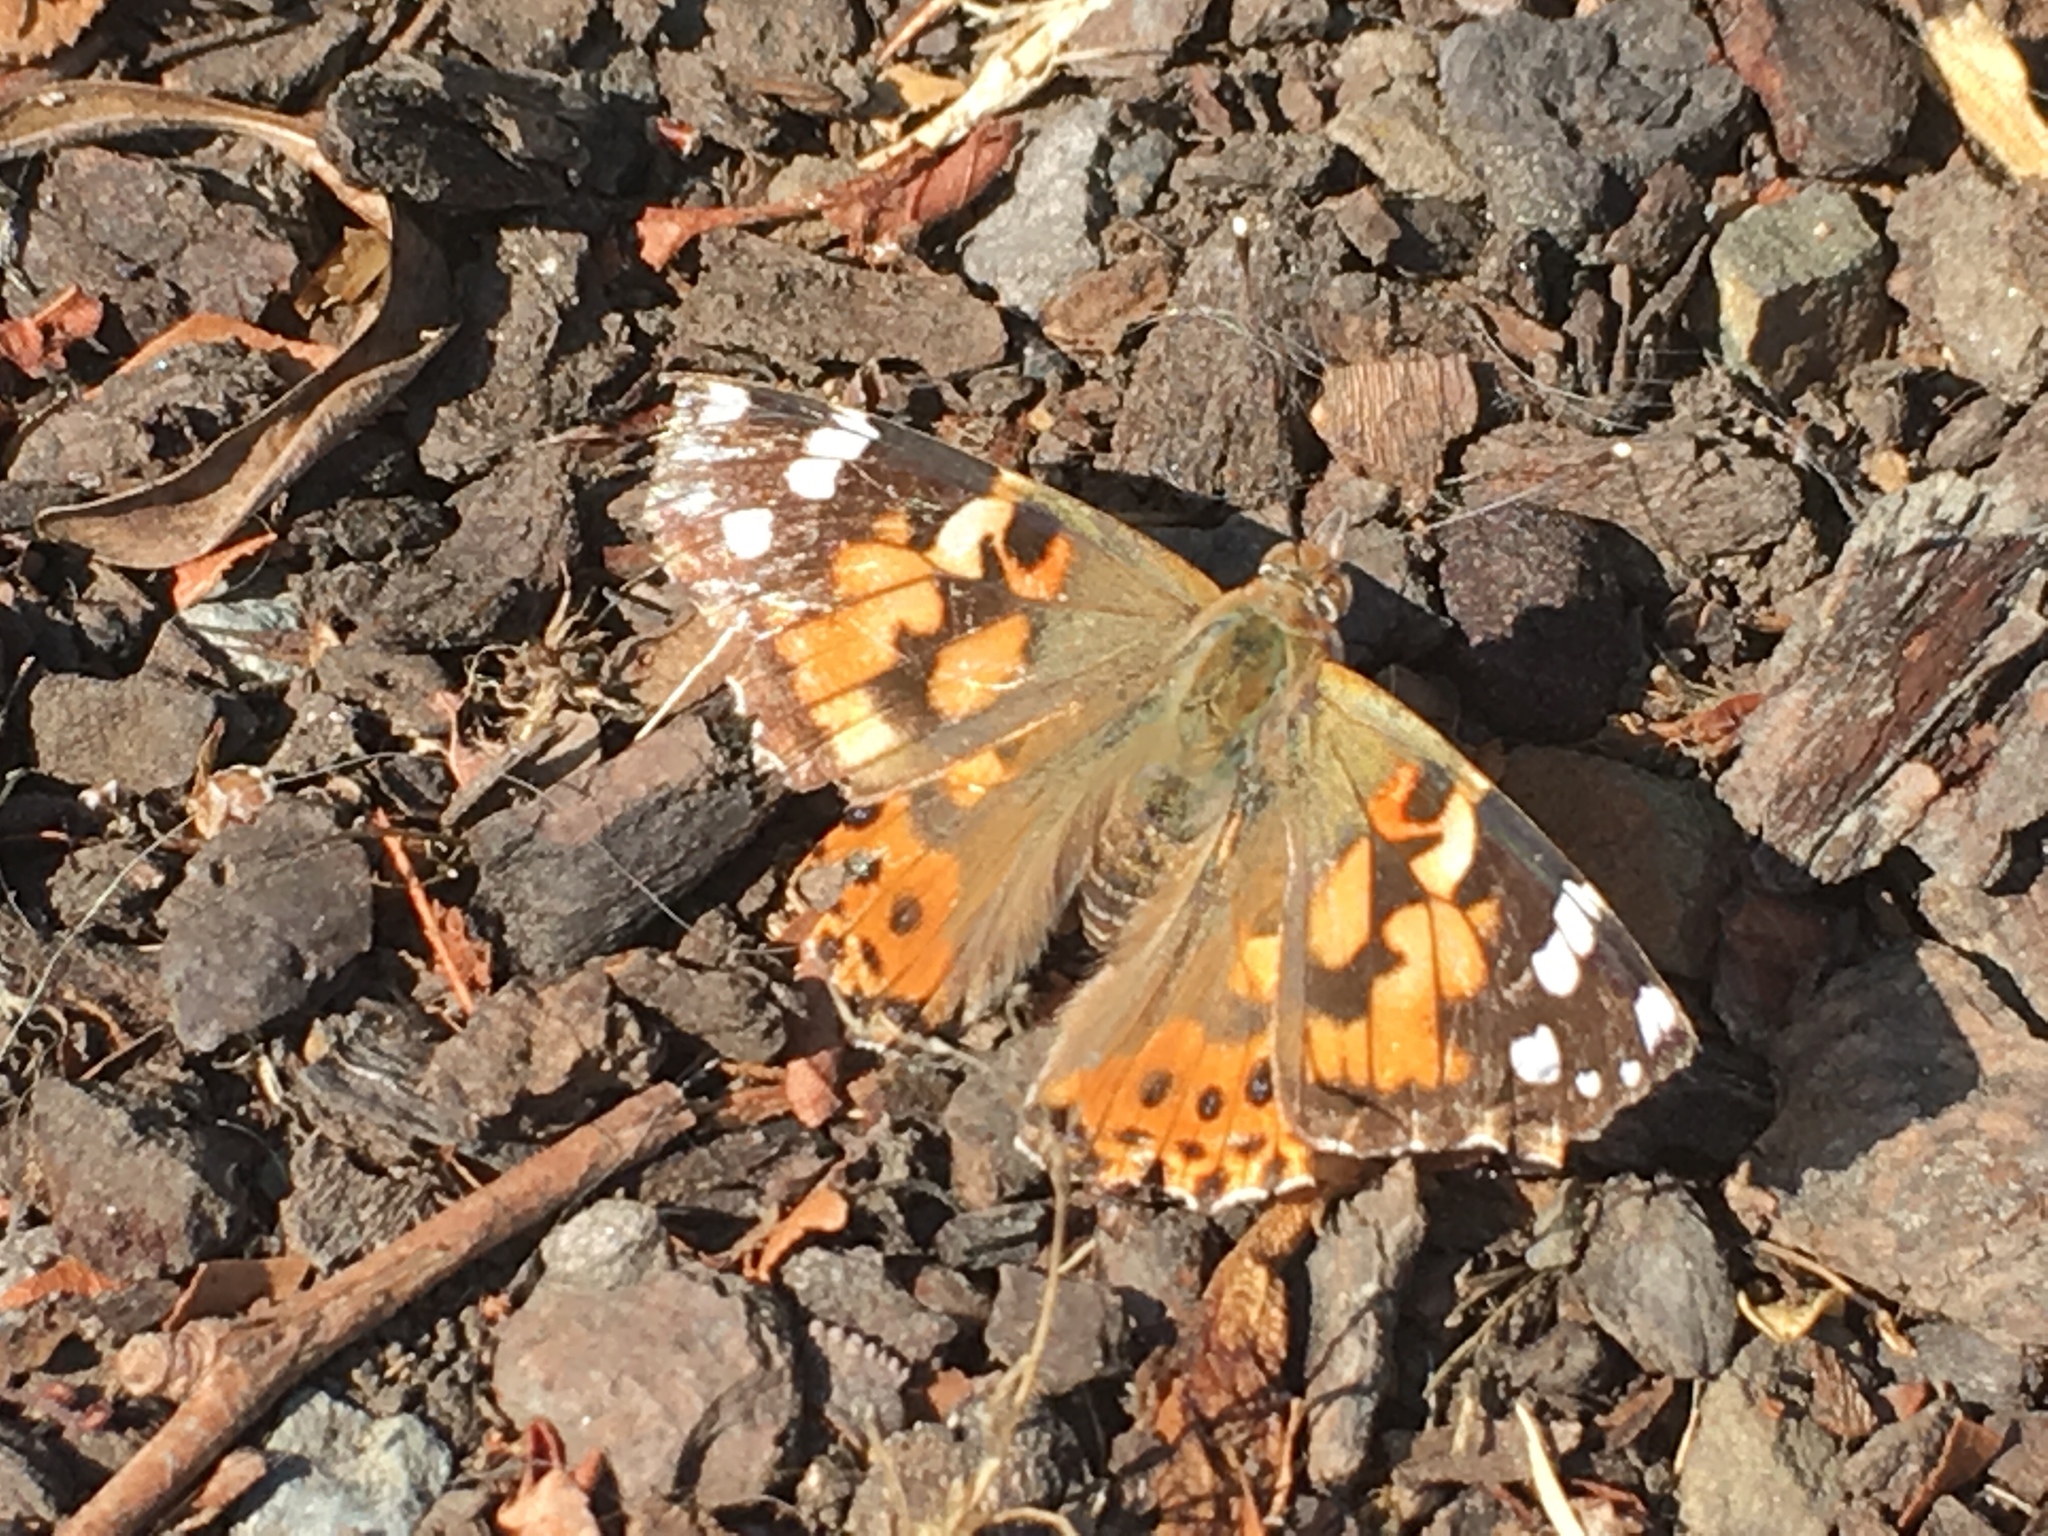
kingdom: Animalia
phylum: Arthropoda
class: Insecta
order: Lepidoptera
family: Nymphalidae
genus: Vanessa
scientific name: Vanessa cardui
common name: Painted lady
